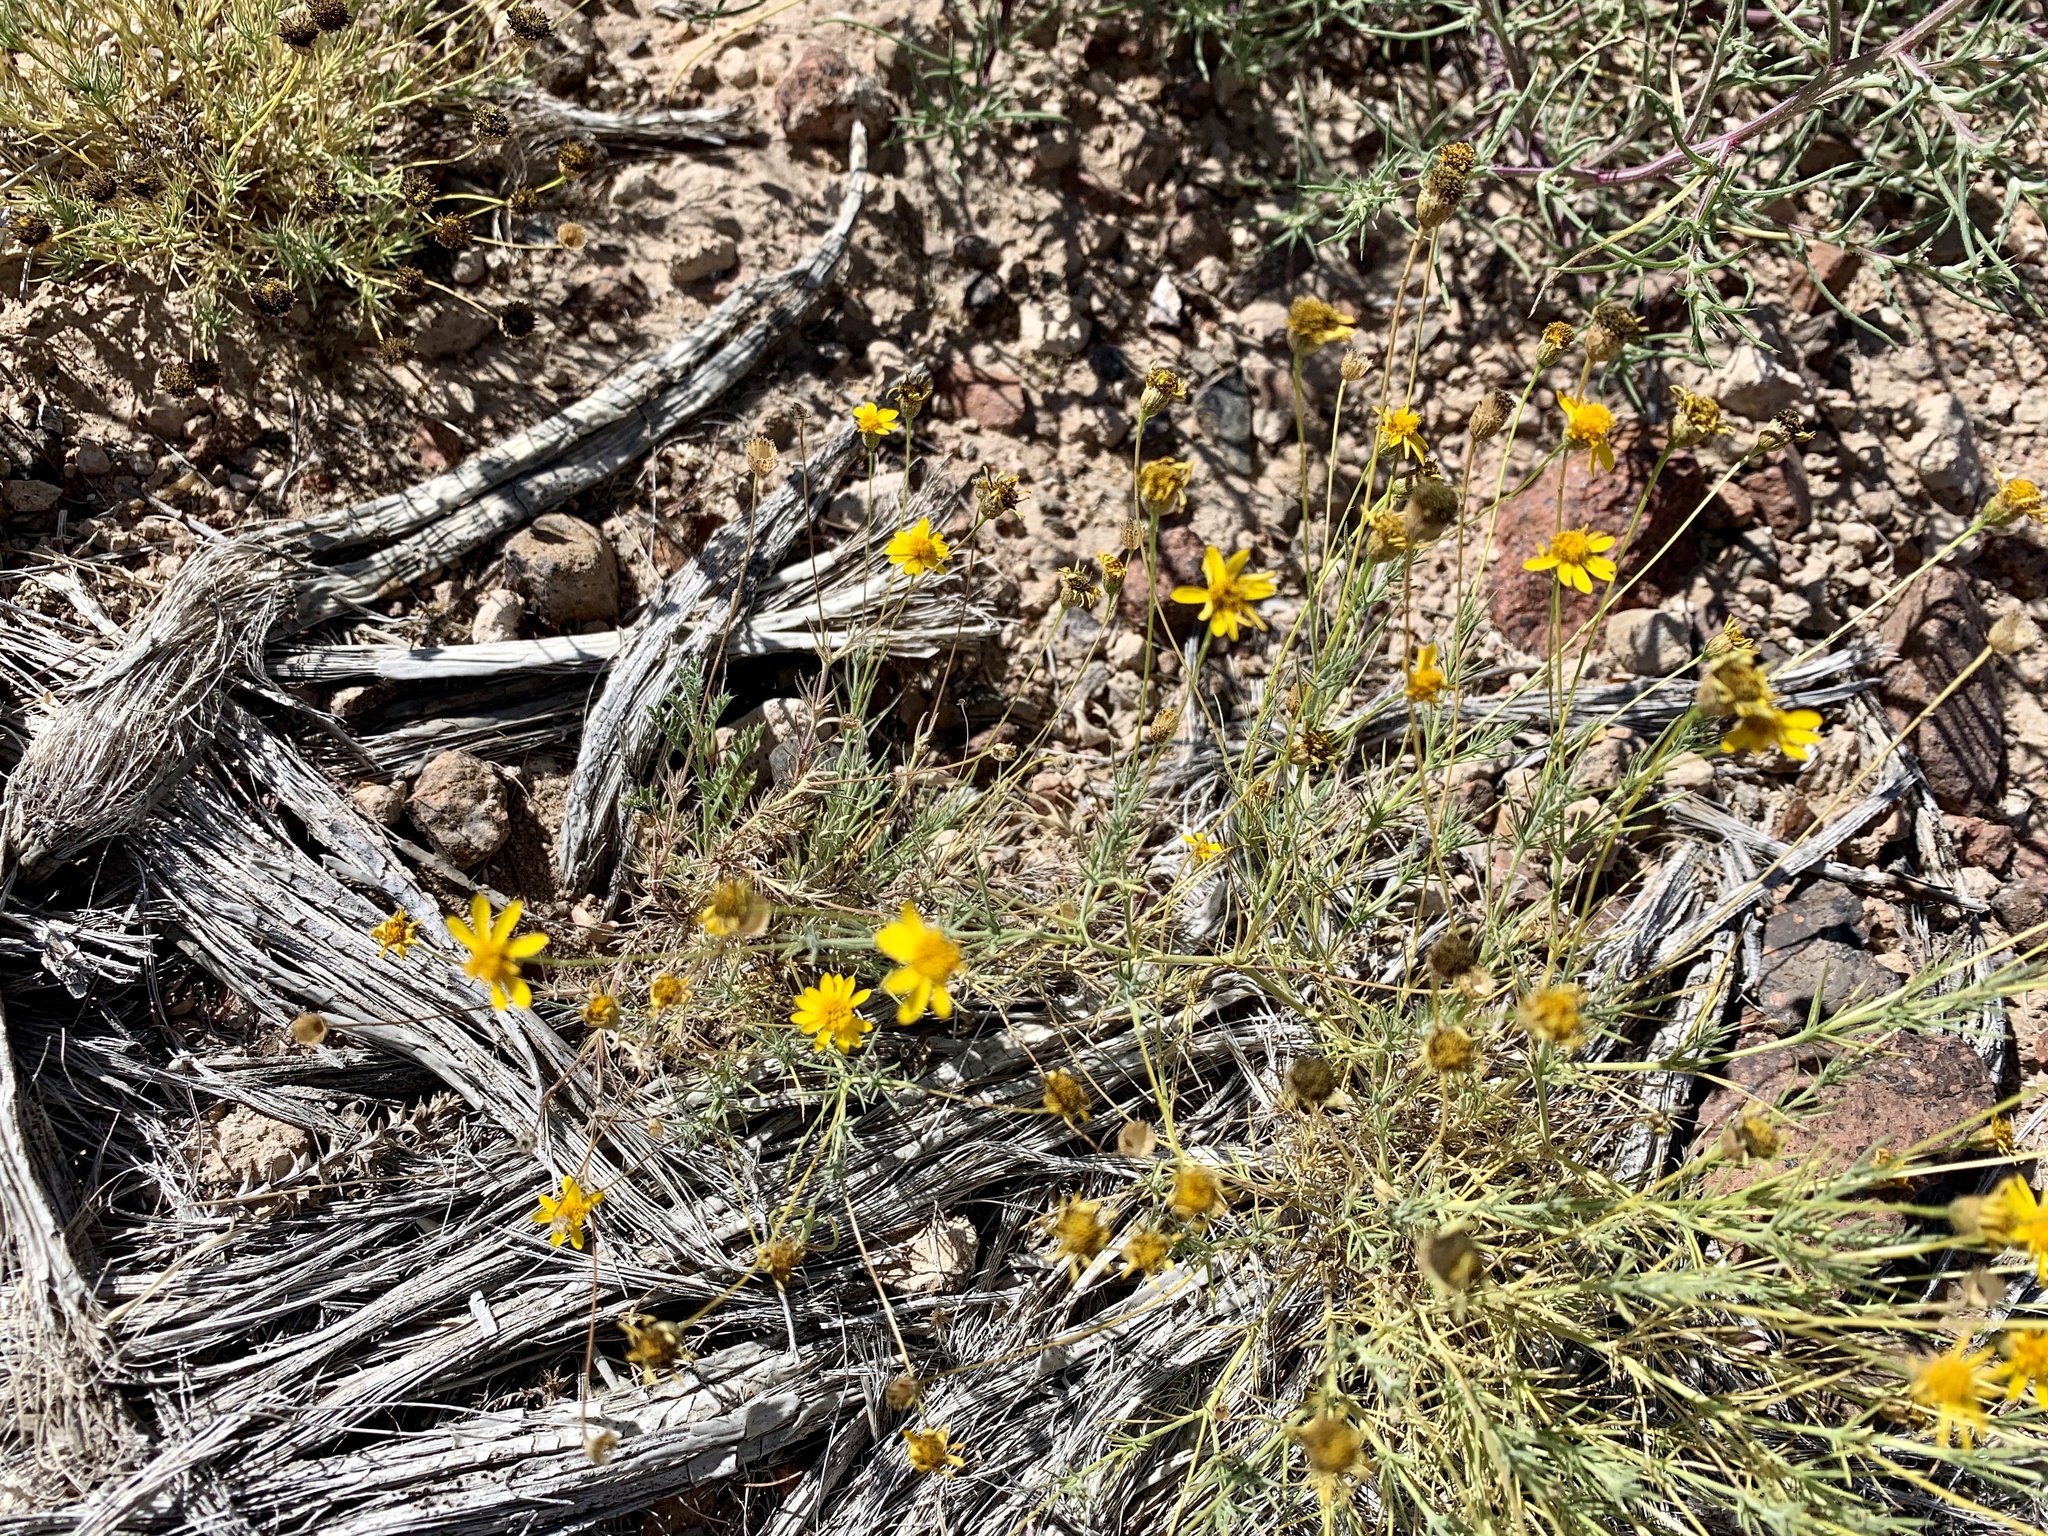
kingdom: Plantae
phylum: Tracheophyta
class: Magnoliopsida
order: Asterales
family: Asteraceae
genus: Thymophylla
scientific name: Thymophylla pentachaeta
